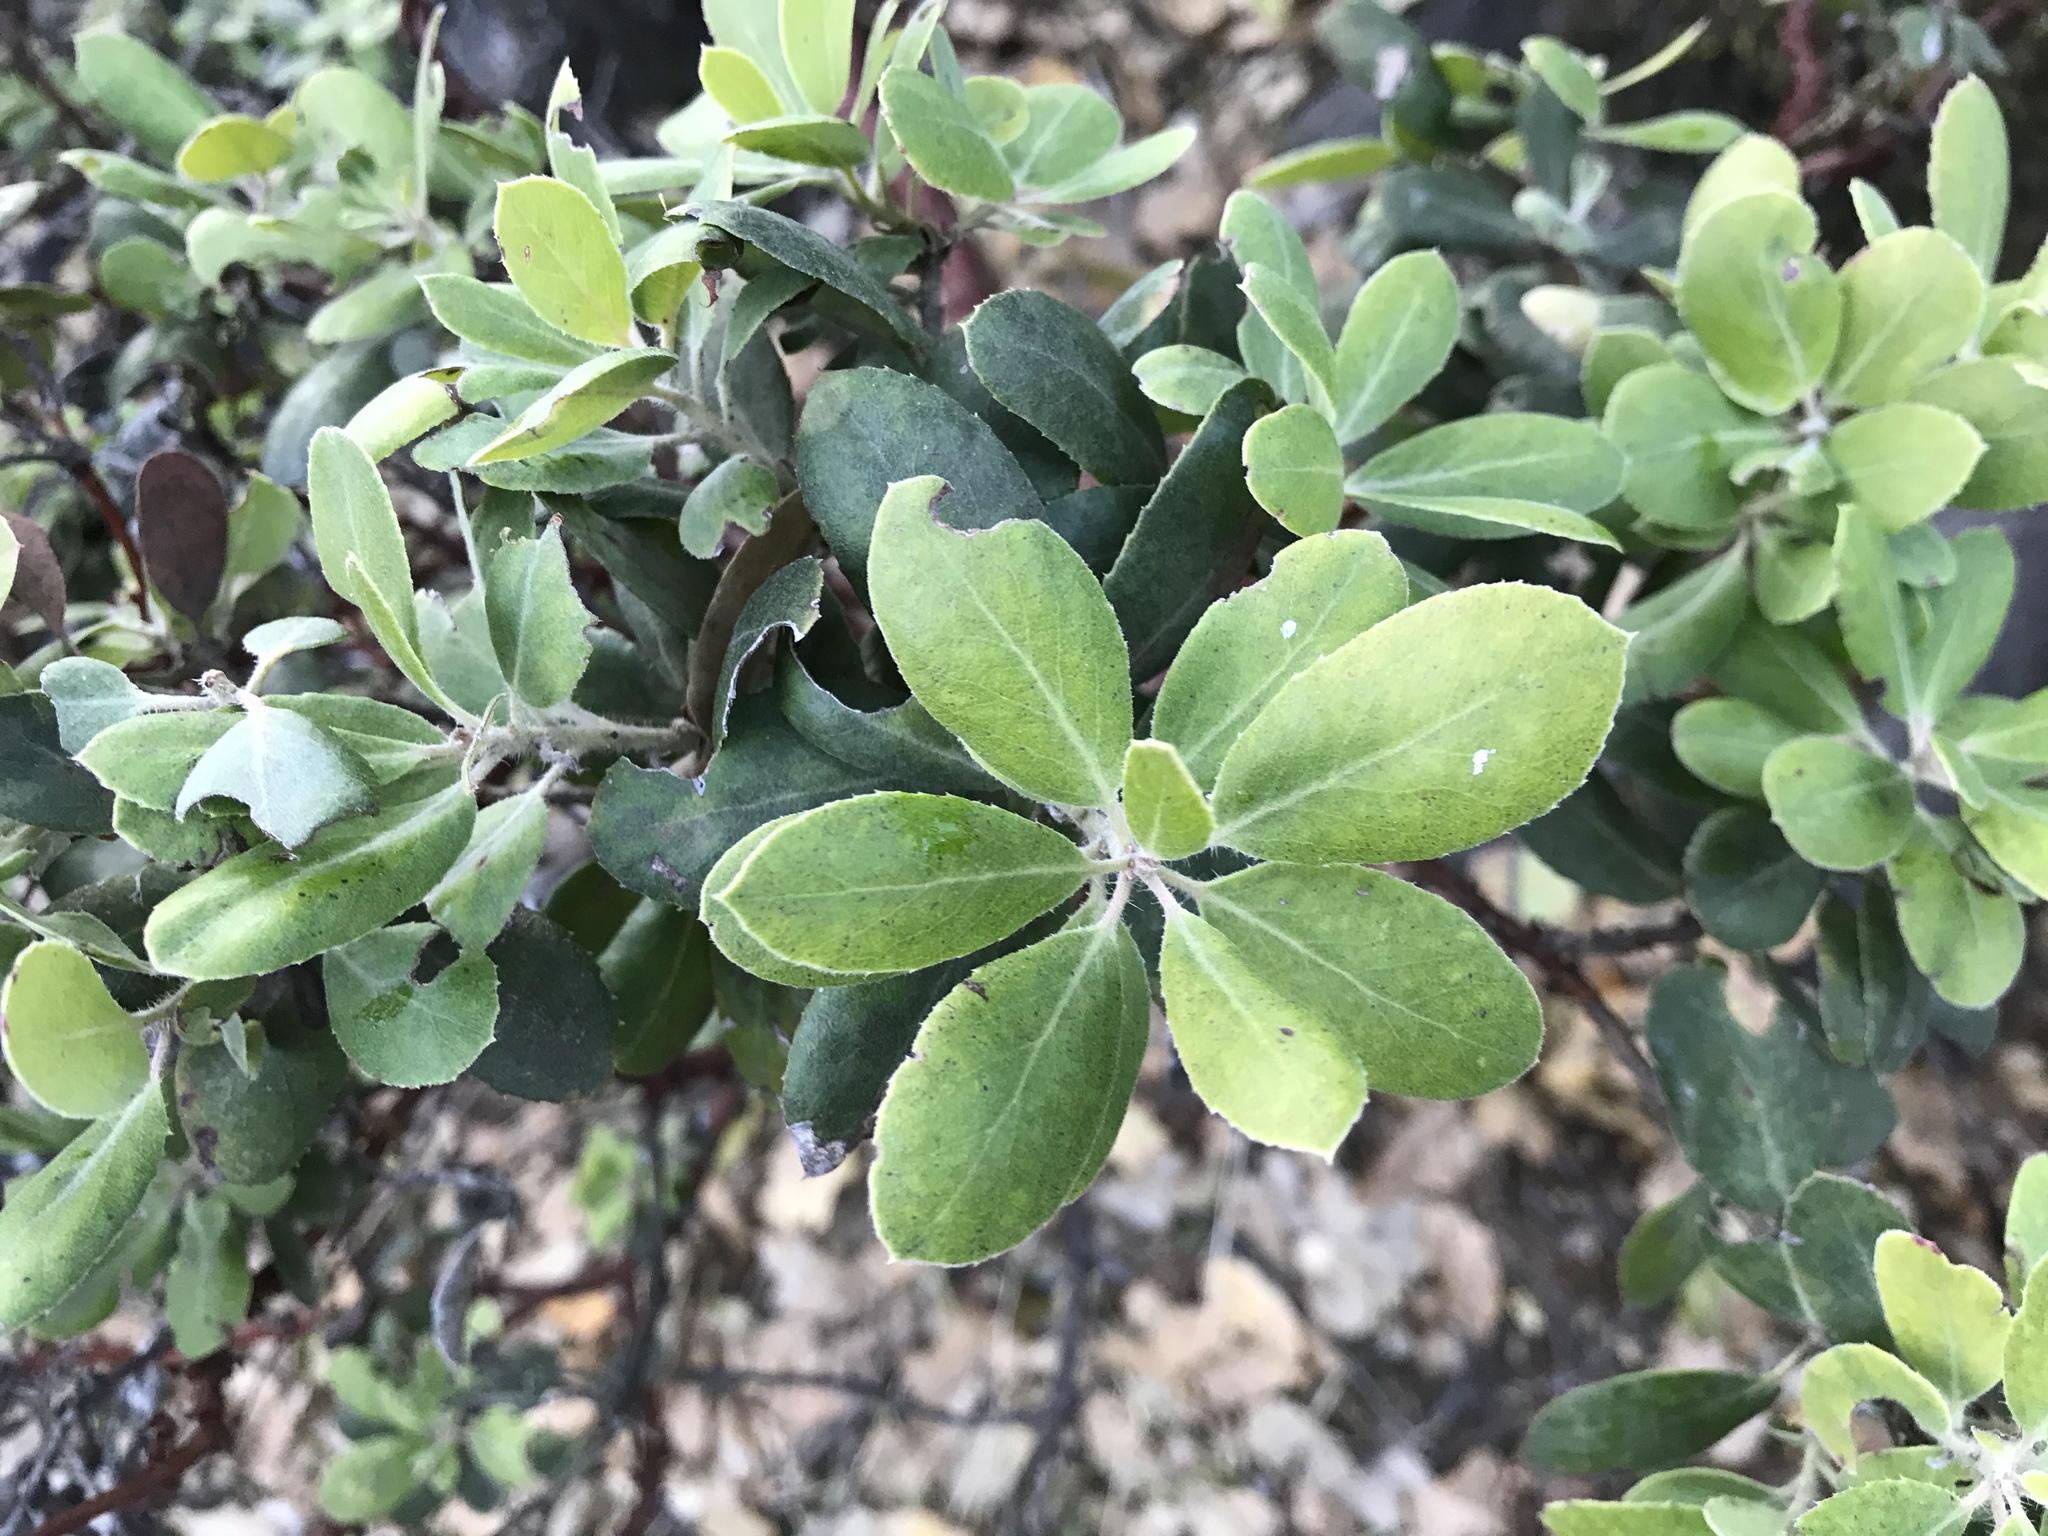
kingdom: Plantae
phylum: Tracheophyta
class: Magnoliopsida
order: Ericales
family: Ericaceae
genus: Arctostaphylos
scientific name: Arctostaphylos crustacea
